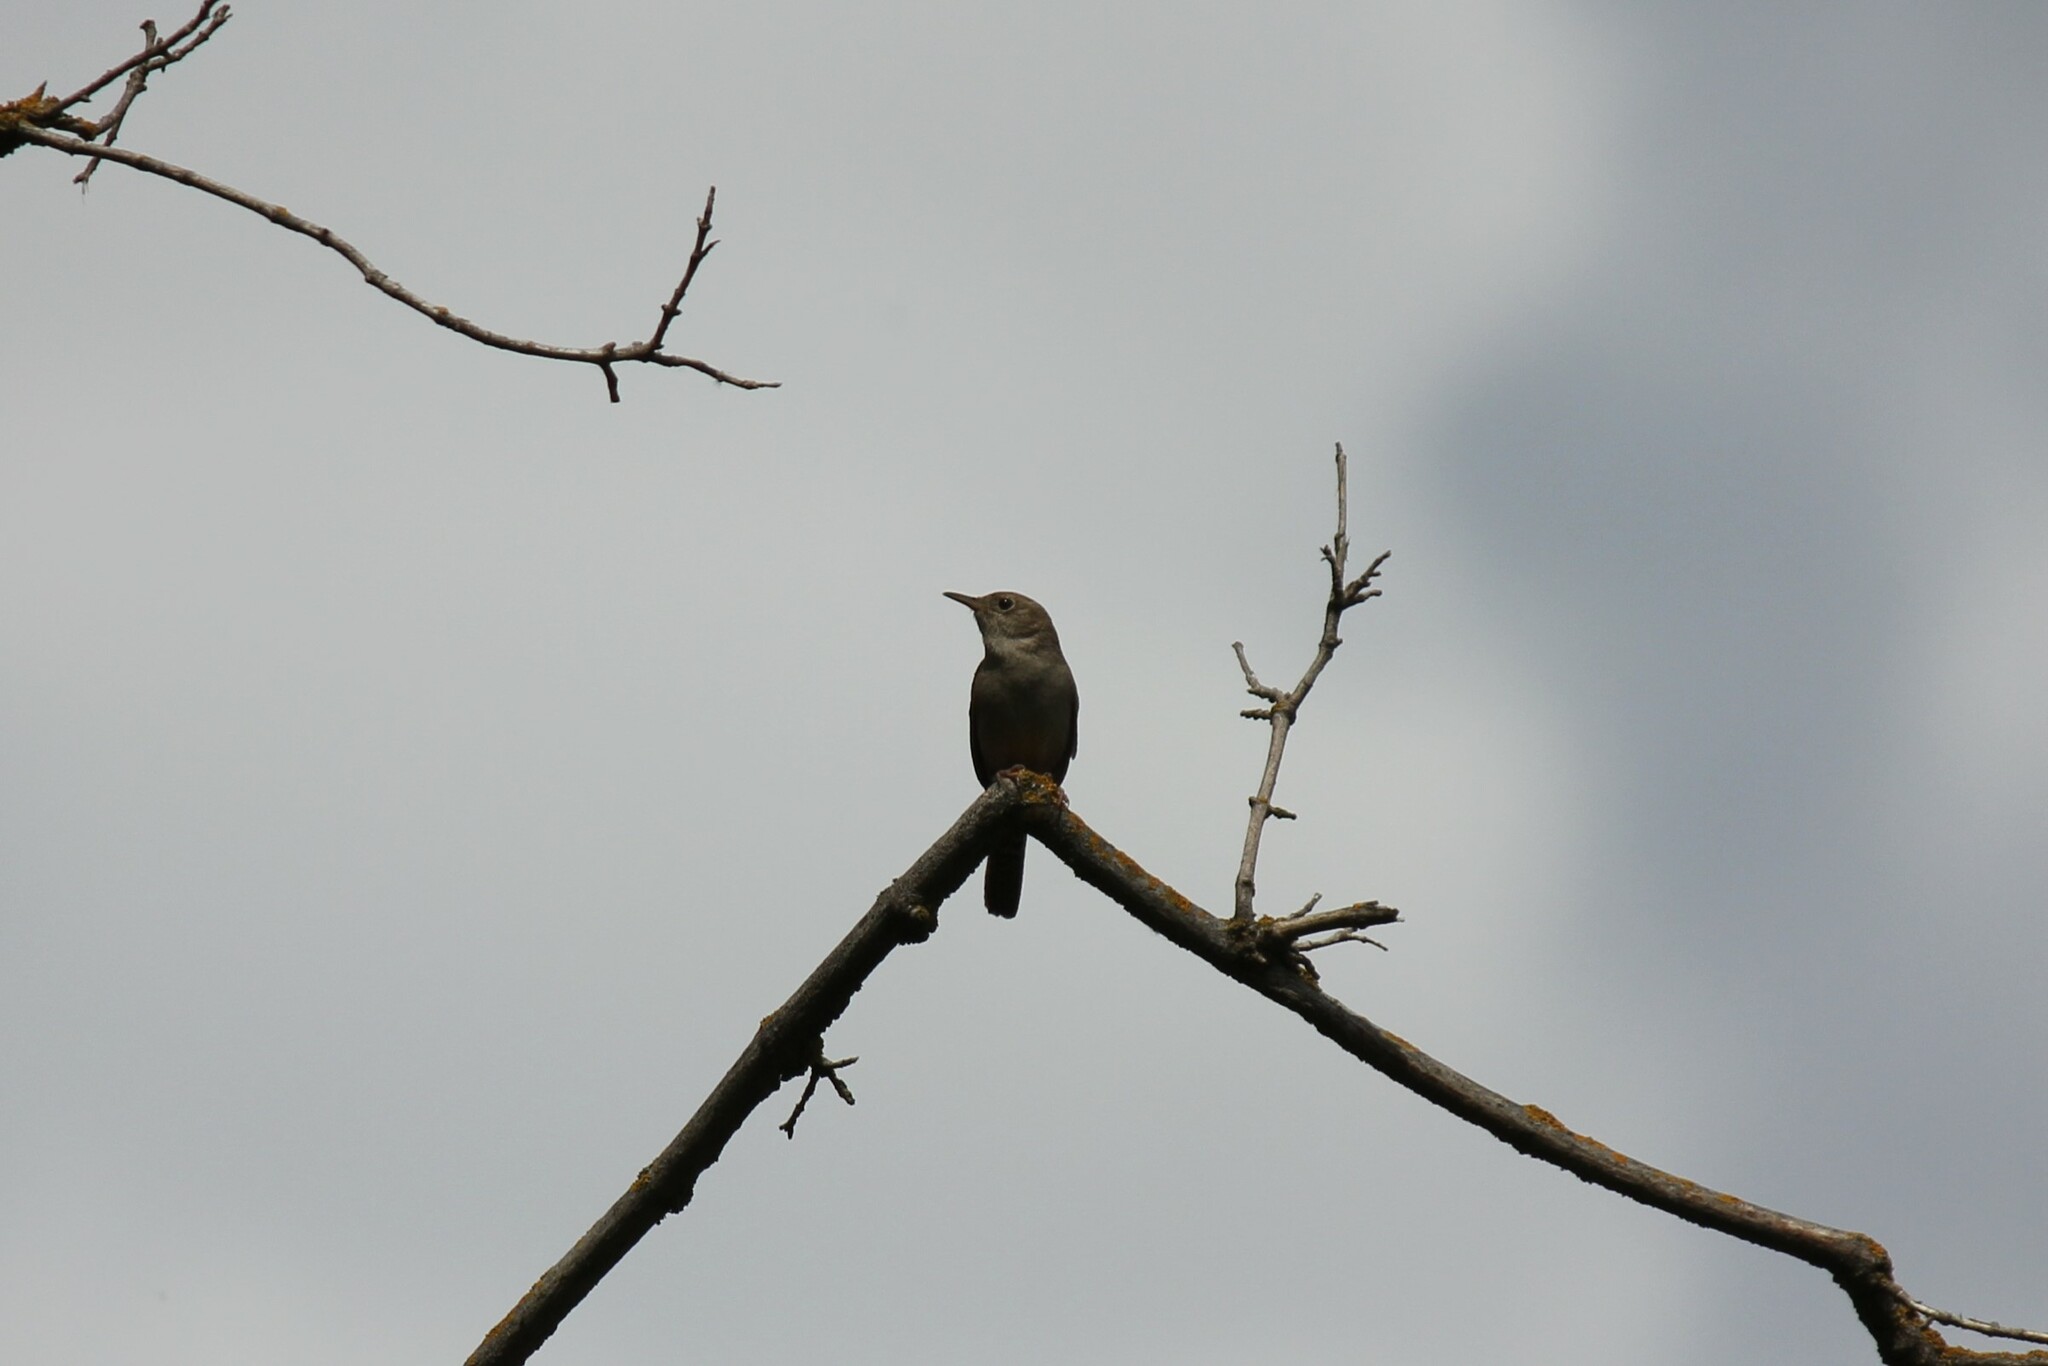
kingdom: Animalia
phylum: Chordata
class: Aves
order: Passeriformes
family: Troglodytidae
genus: Troglodytes
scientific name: Troglodytes aedon
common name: House wren
